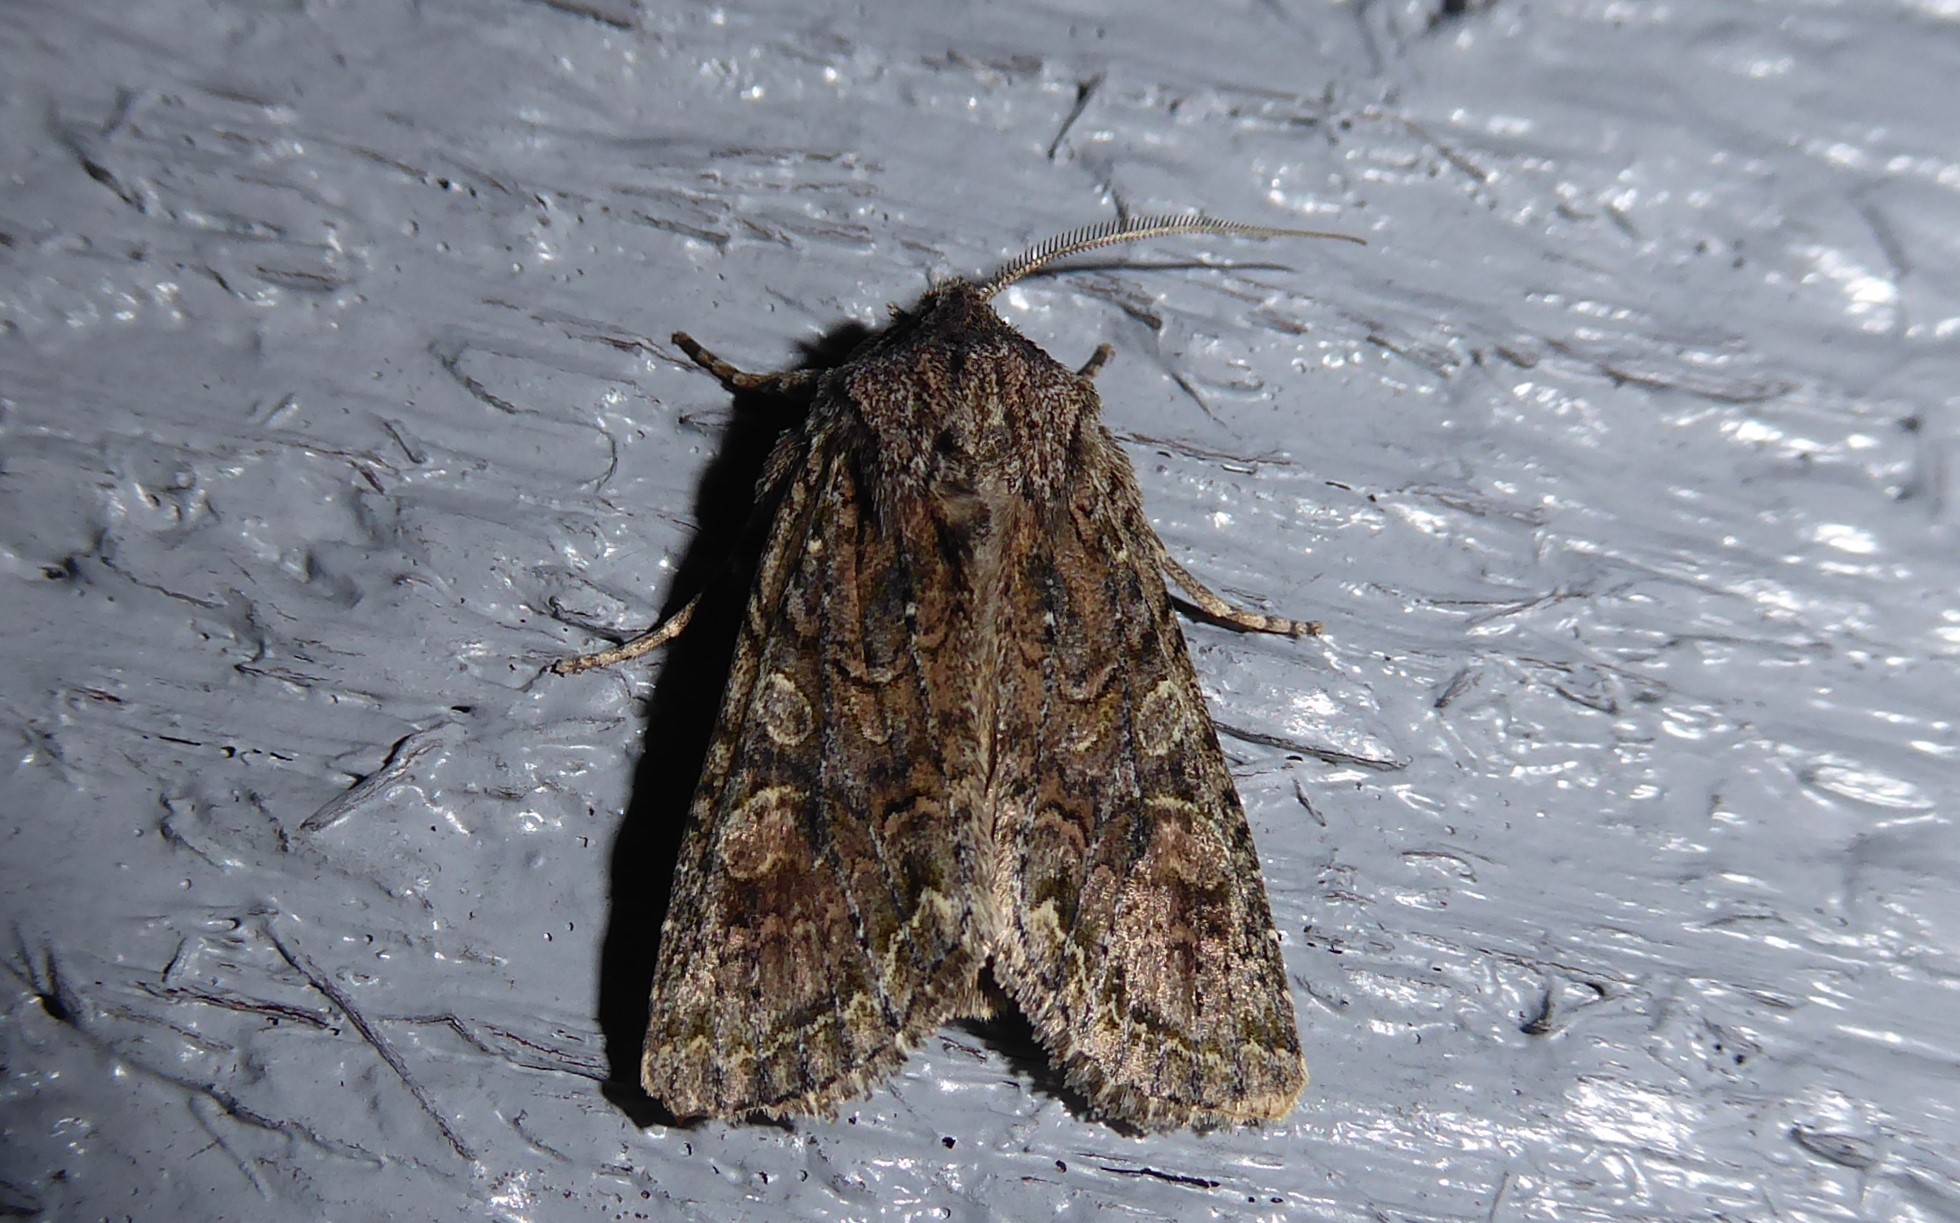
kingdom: Animalia
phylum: Arthropoda
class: Insecta
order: Lepidoptera
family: Noctuidae
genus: Ichneutica
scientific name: Ichneutica mutans
